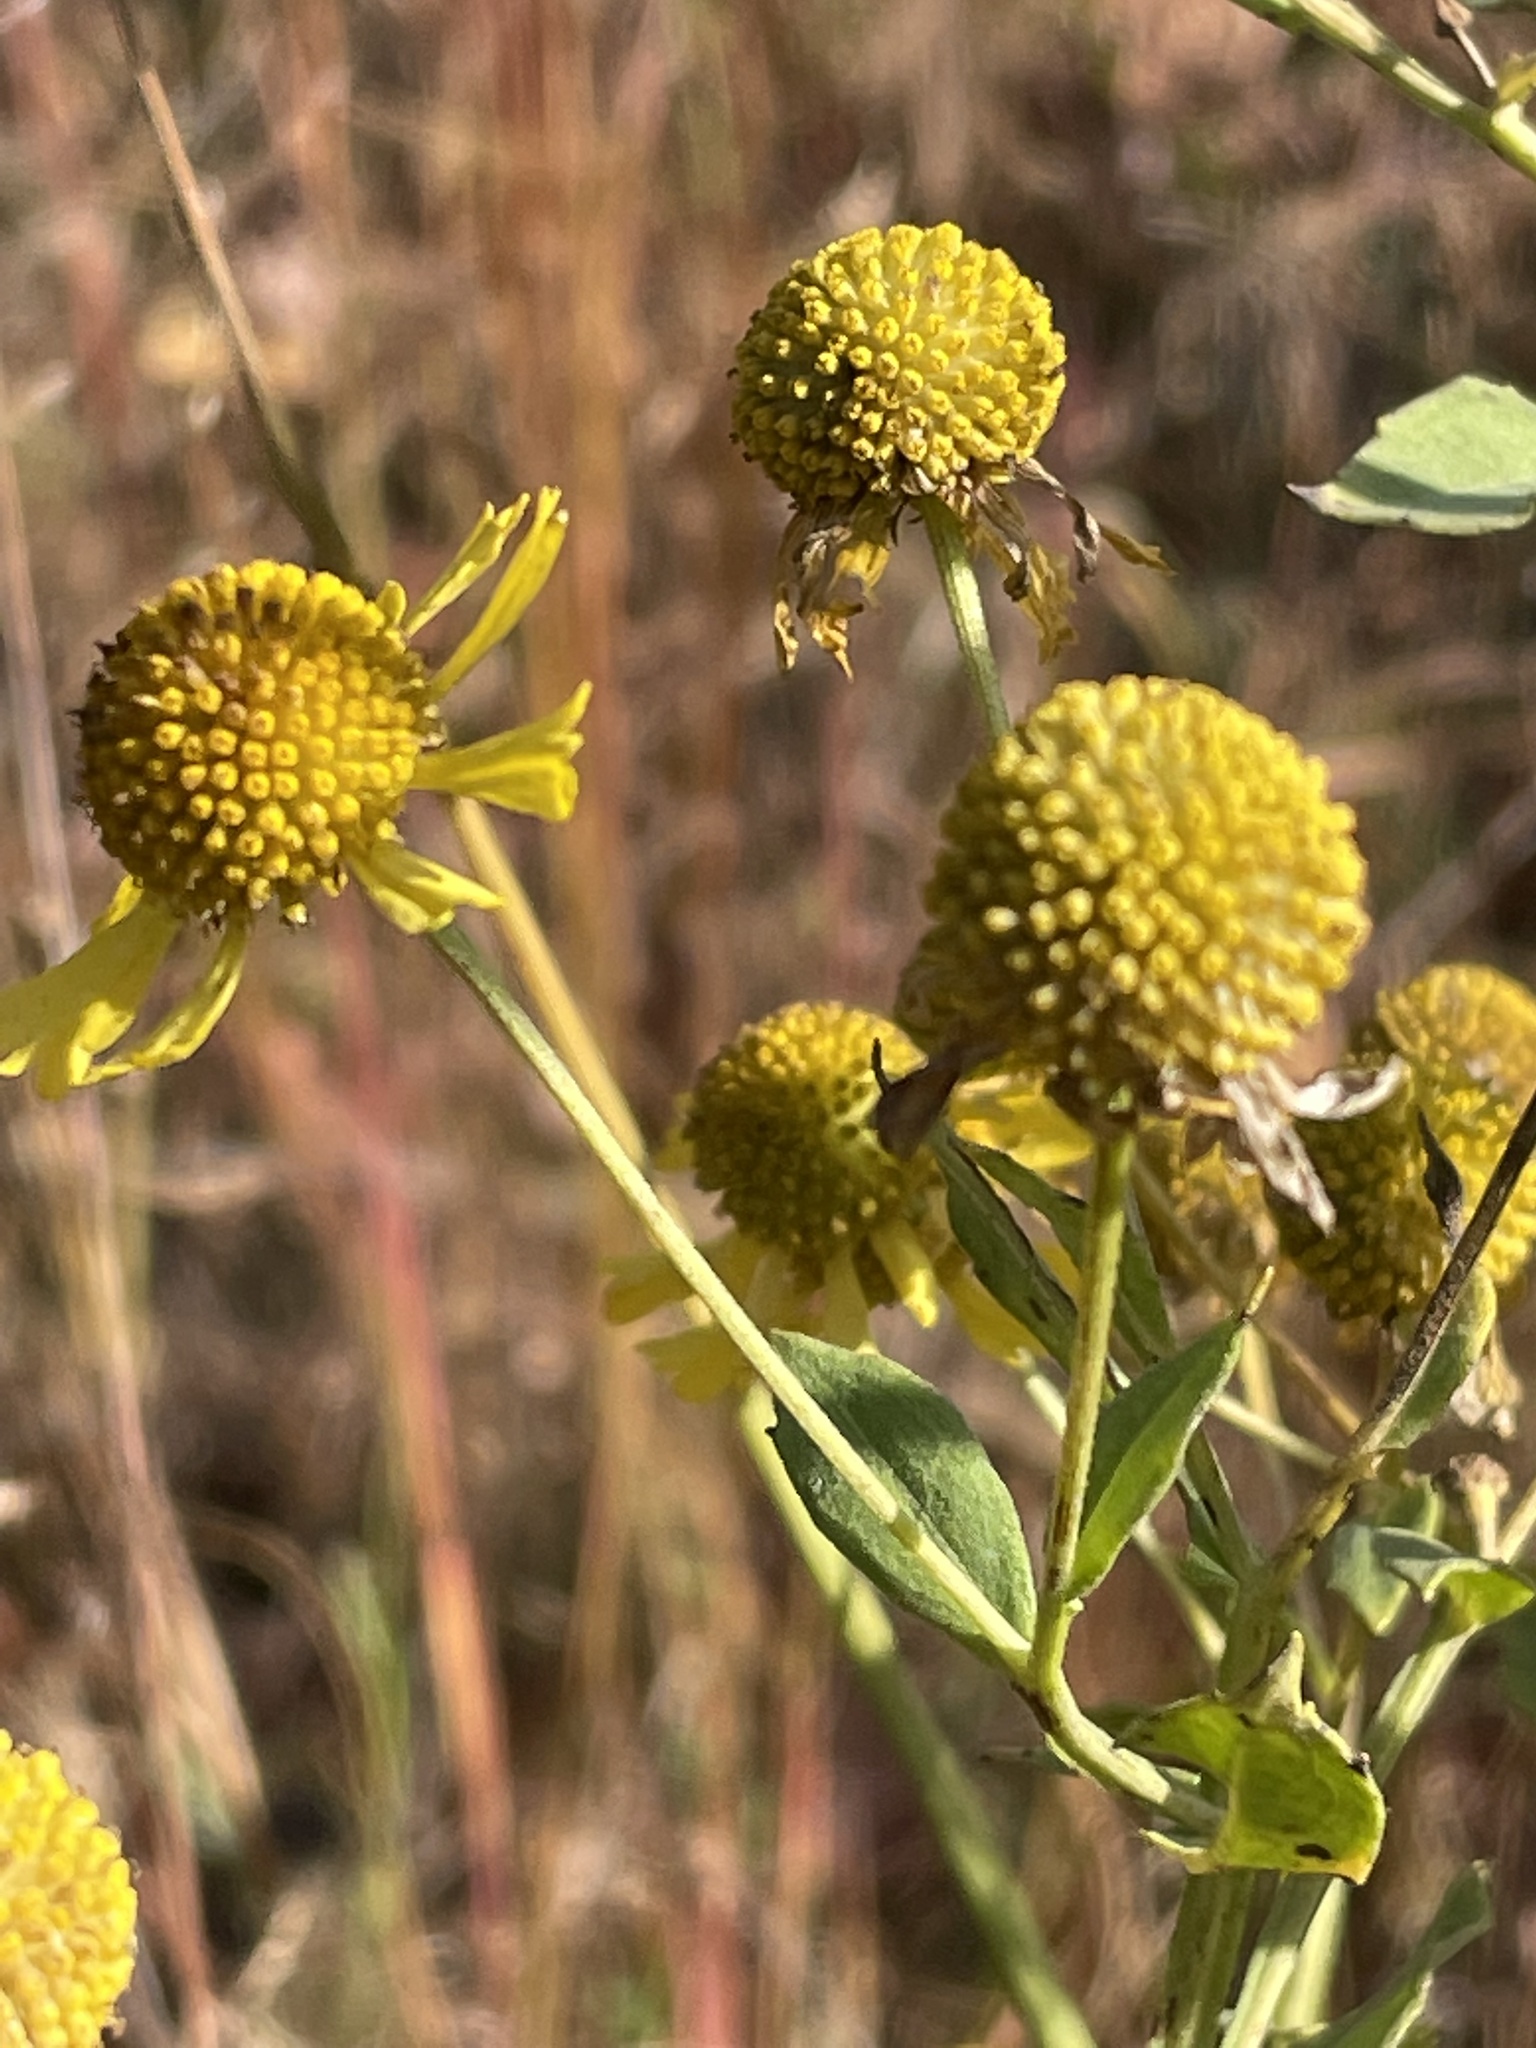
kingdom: Plantae
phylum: Tracheophyta
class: Magnoliopsida
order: Asterales
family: Asteraceae
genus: Helenium
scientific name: Helenium autumnale
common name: Sneezeweed
